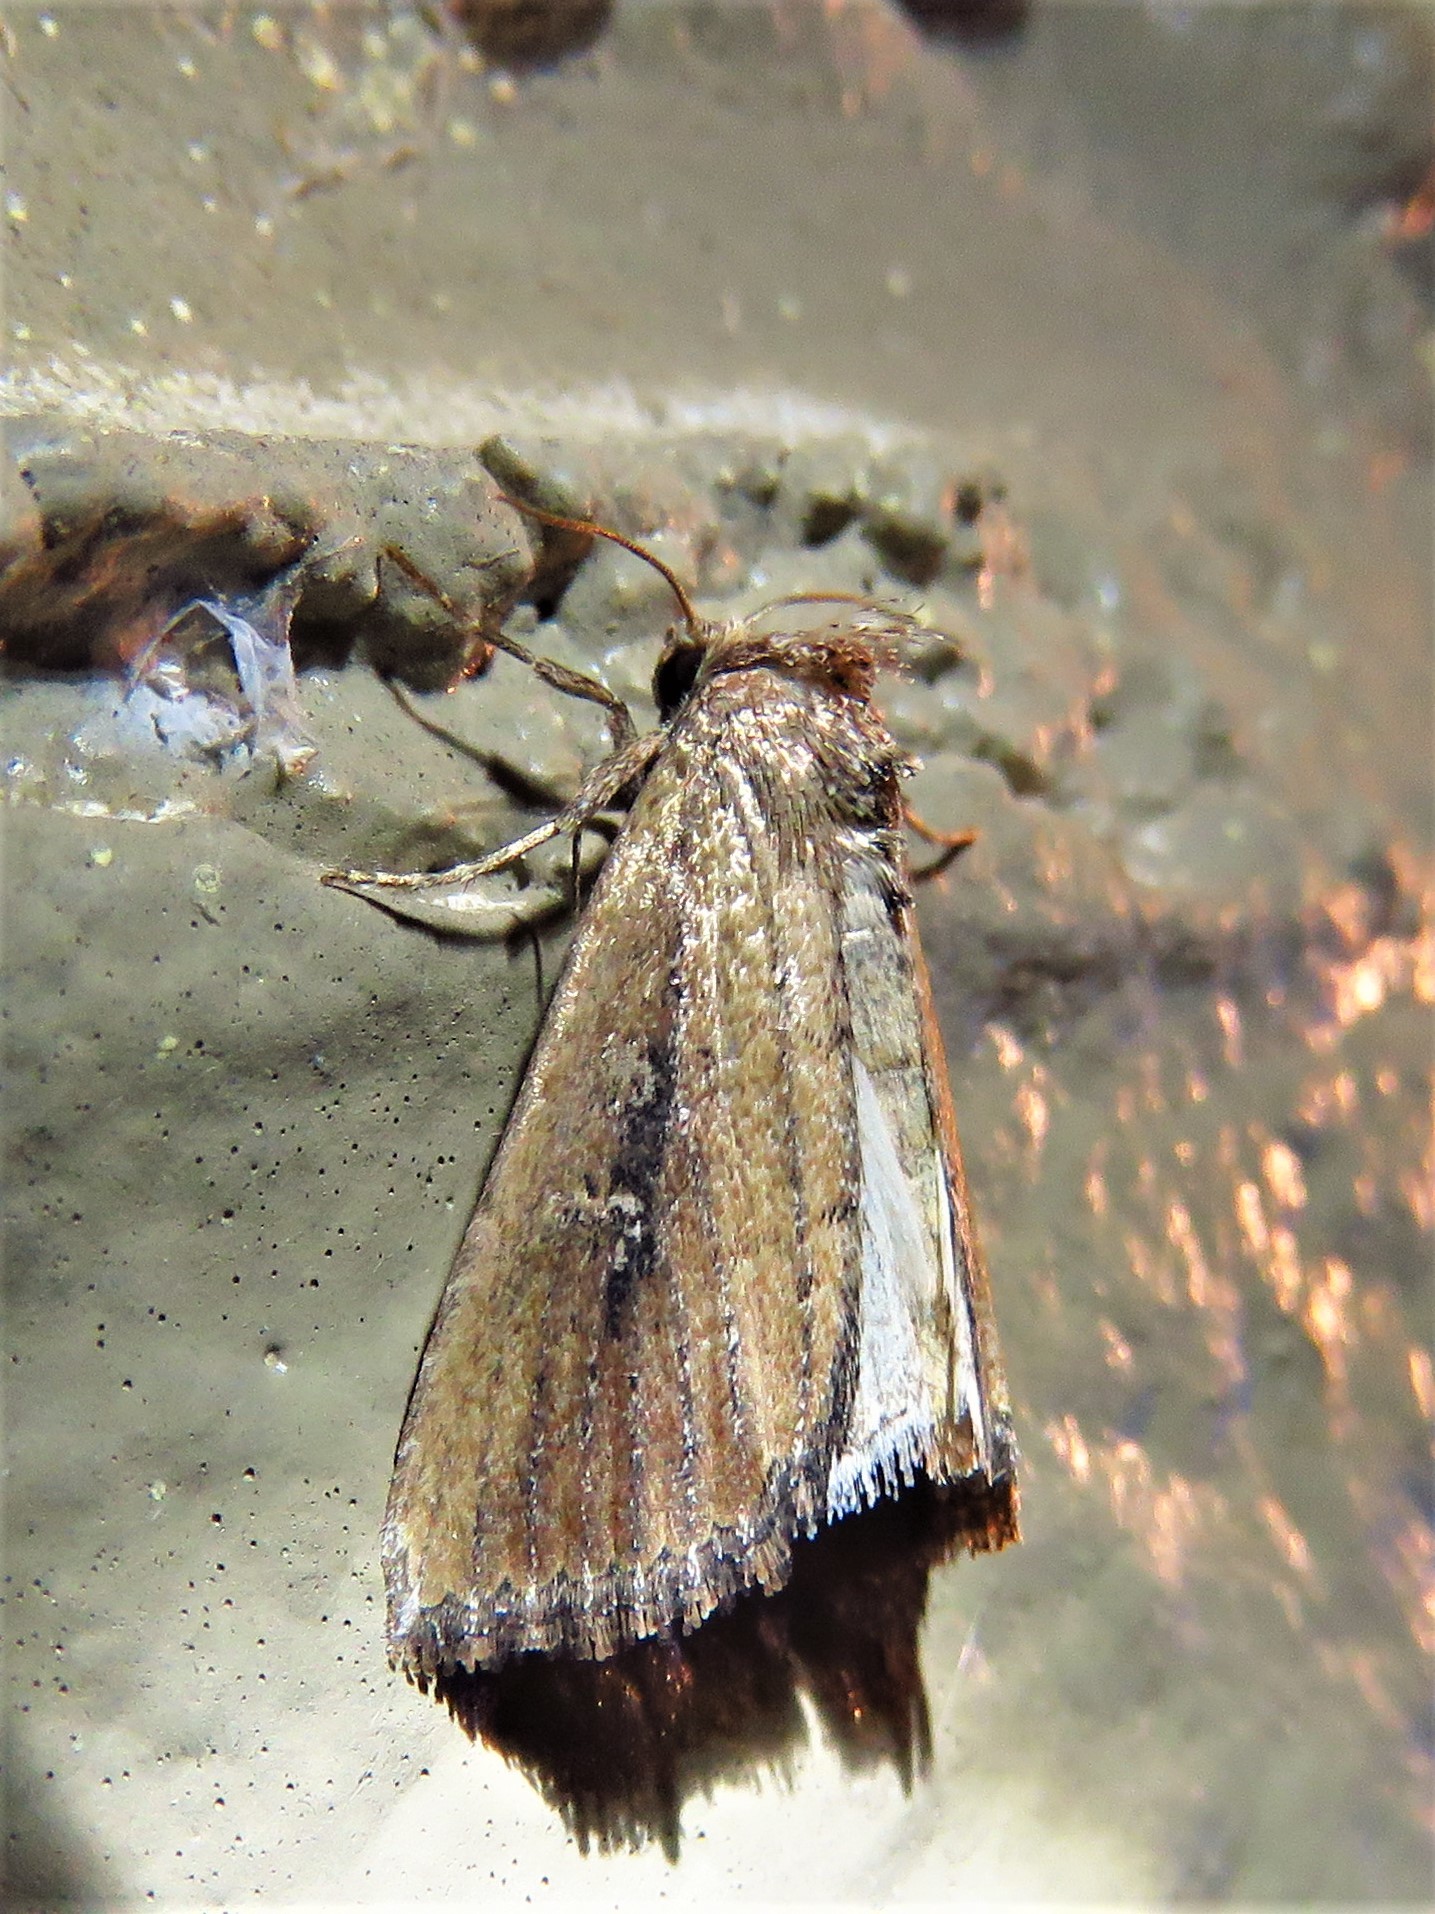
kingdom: Animalia
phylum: Arthropoda
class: Insecta
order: Lepidoptera
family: Noctuidae
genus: Condica
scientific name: Condica videns
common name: White-dotted groundling
